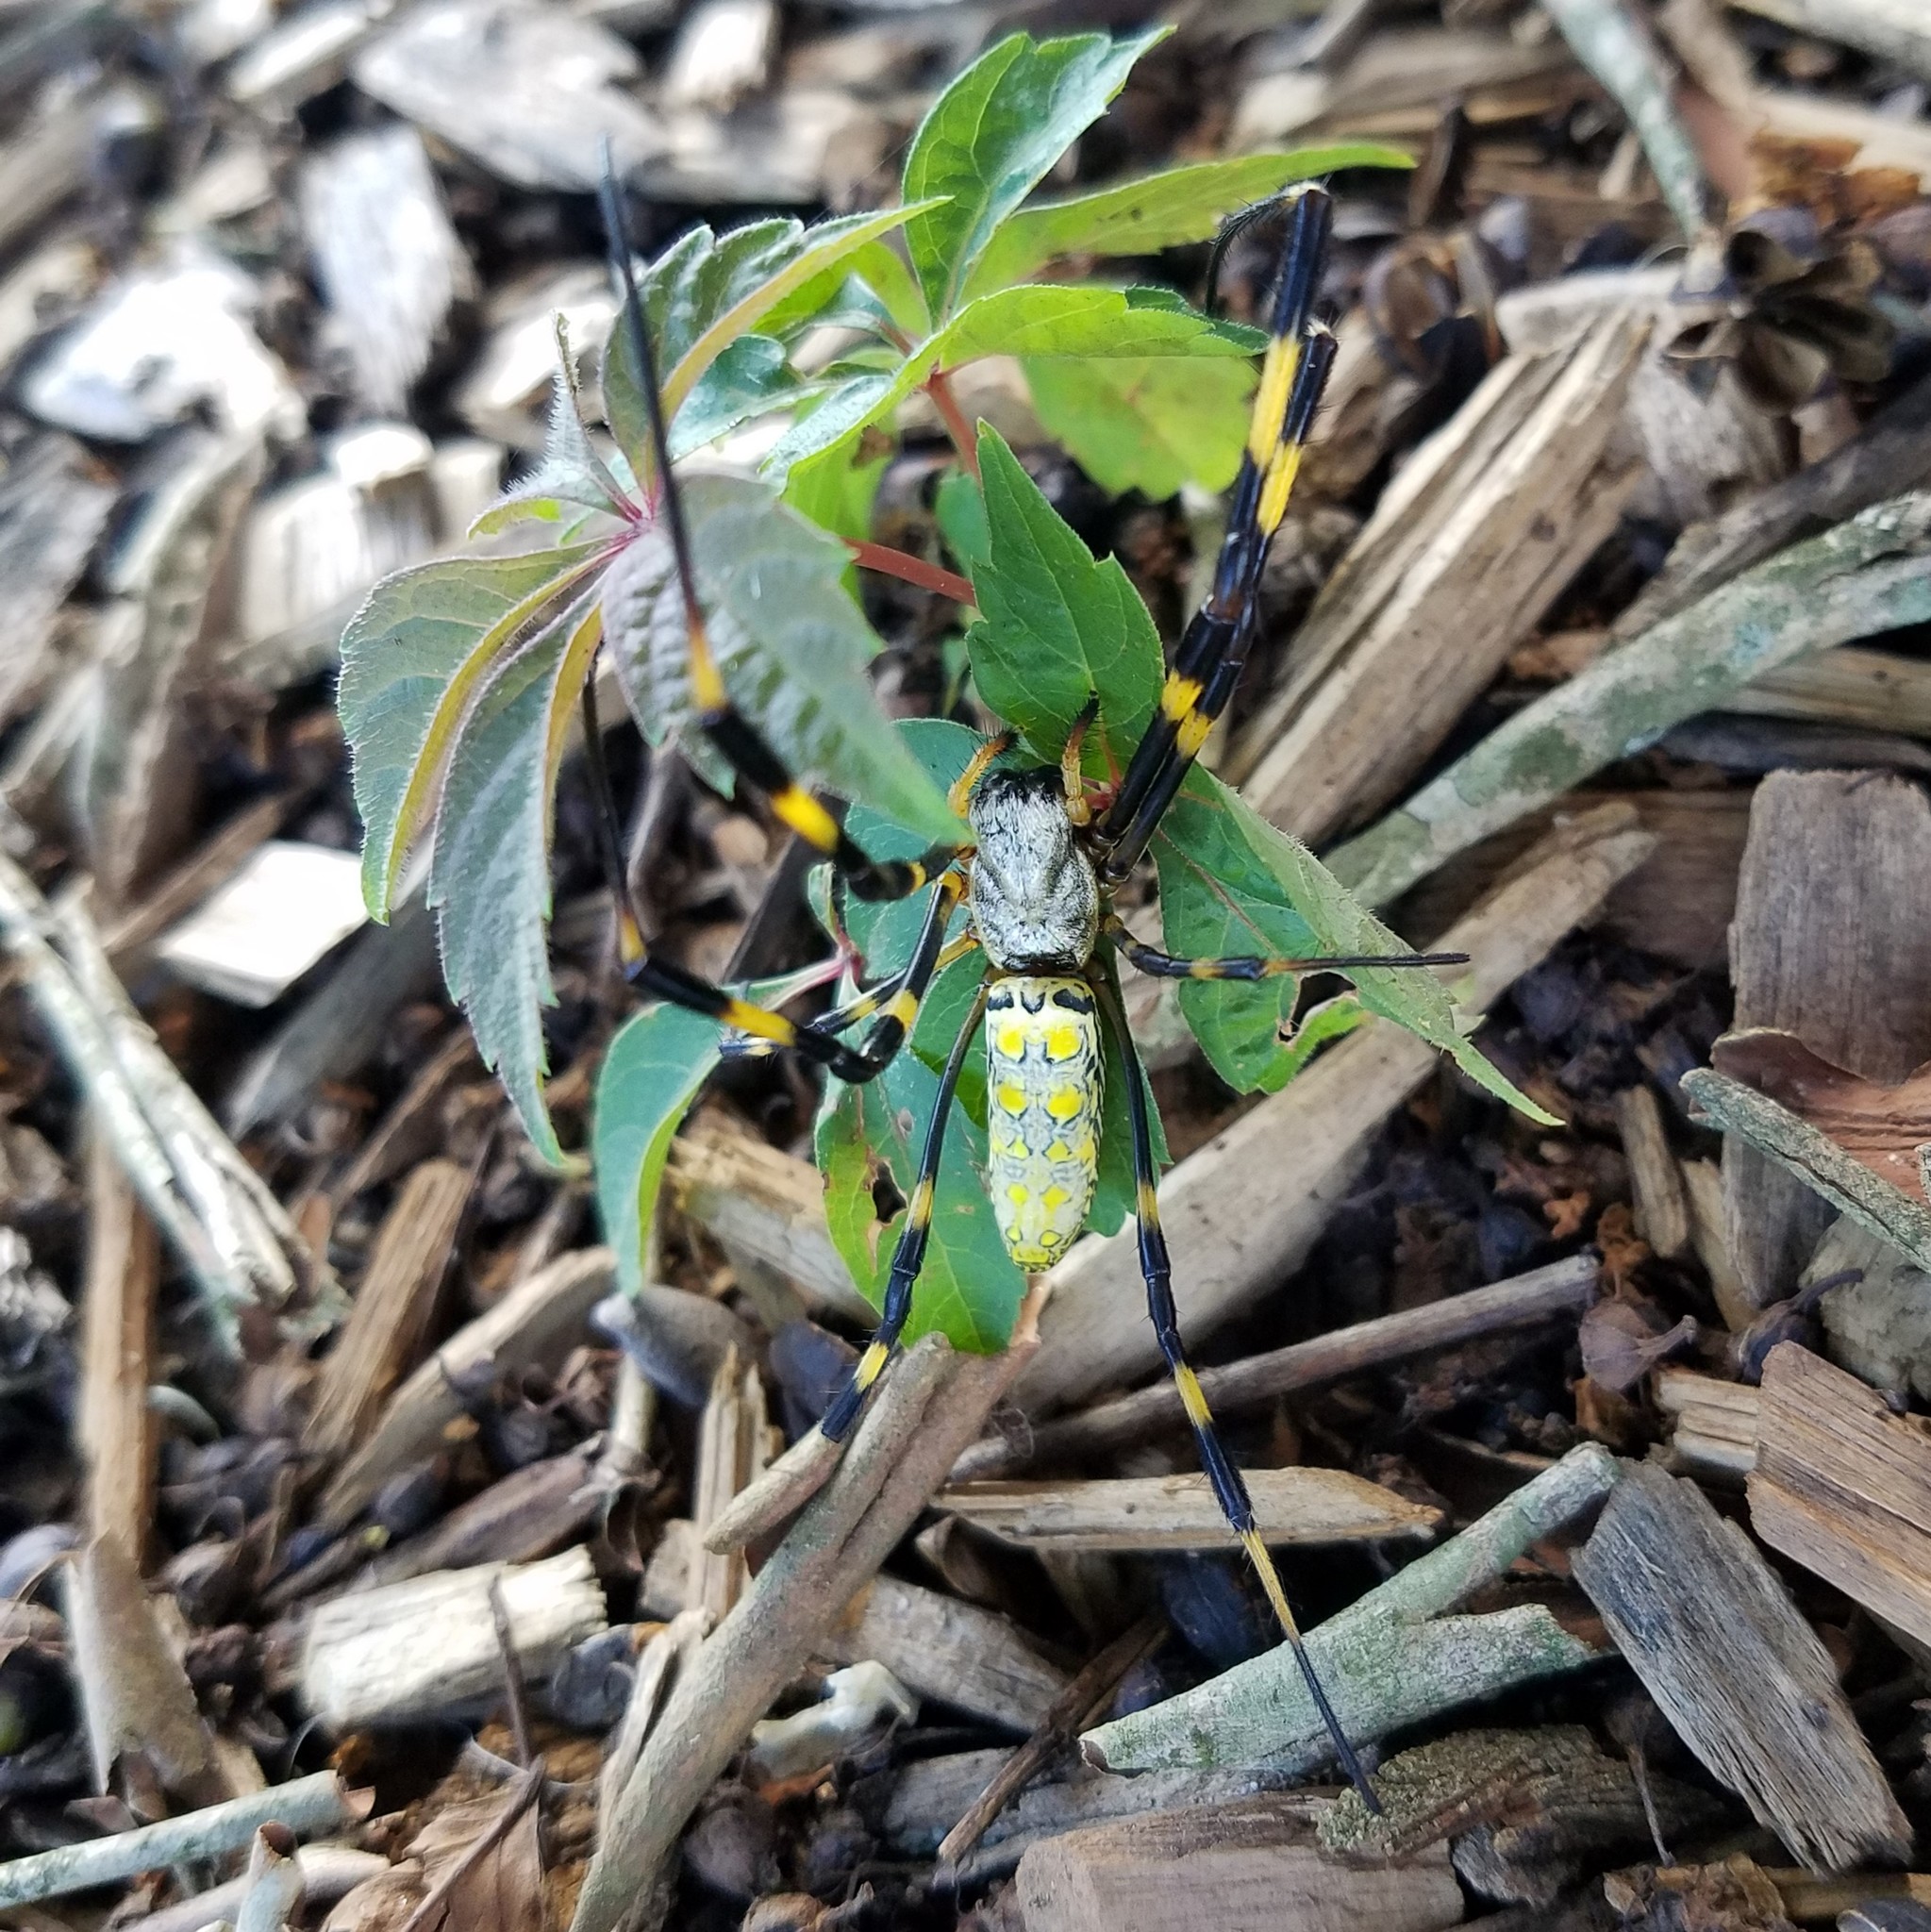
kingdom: Animalia
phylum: Arthropoda
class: Arachnida
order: Araneae
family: Araneidae
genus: Trichonephila
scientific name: Trichonephila clavata
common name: Jorō spider
